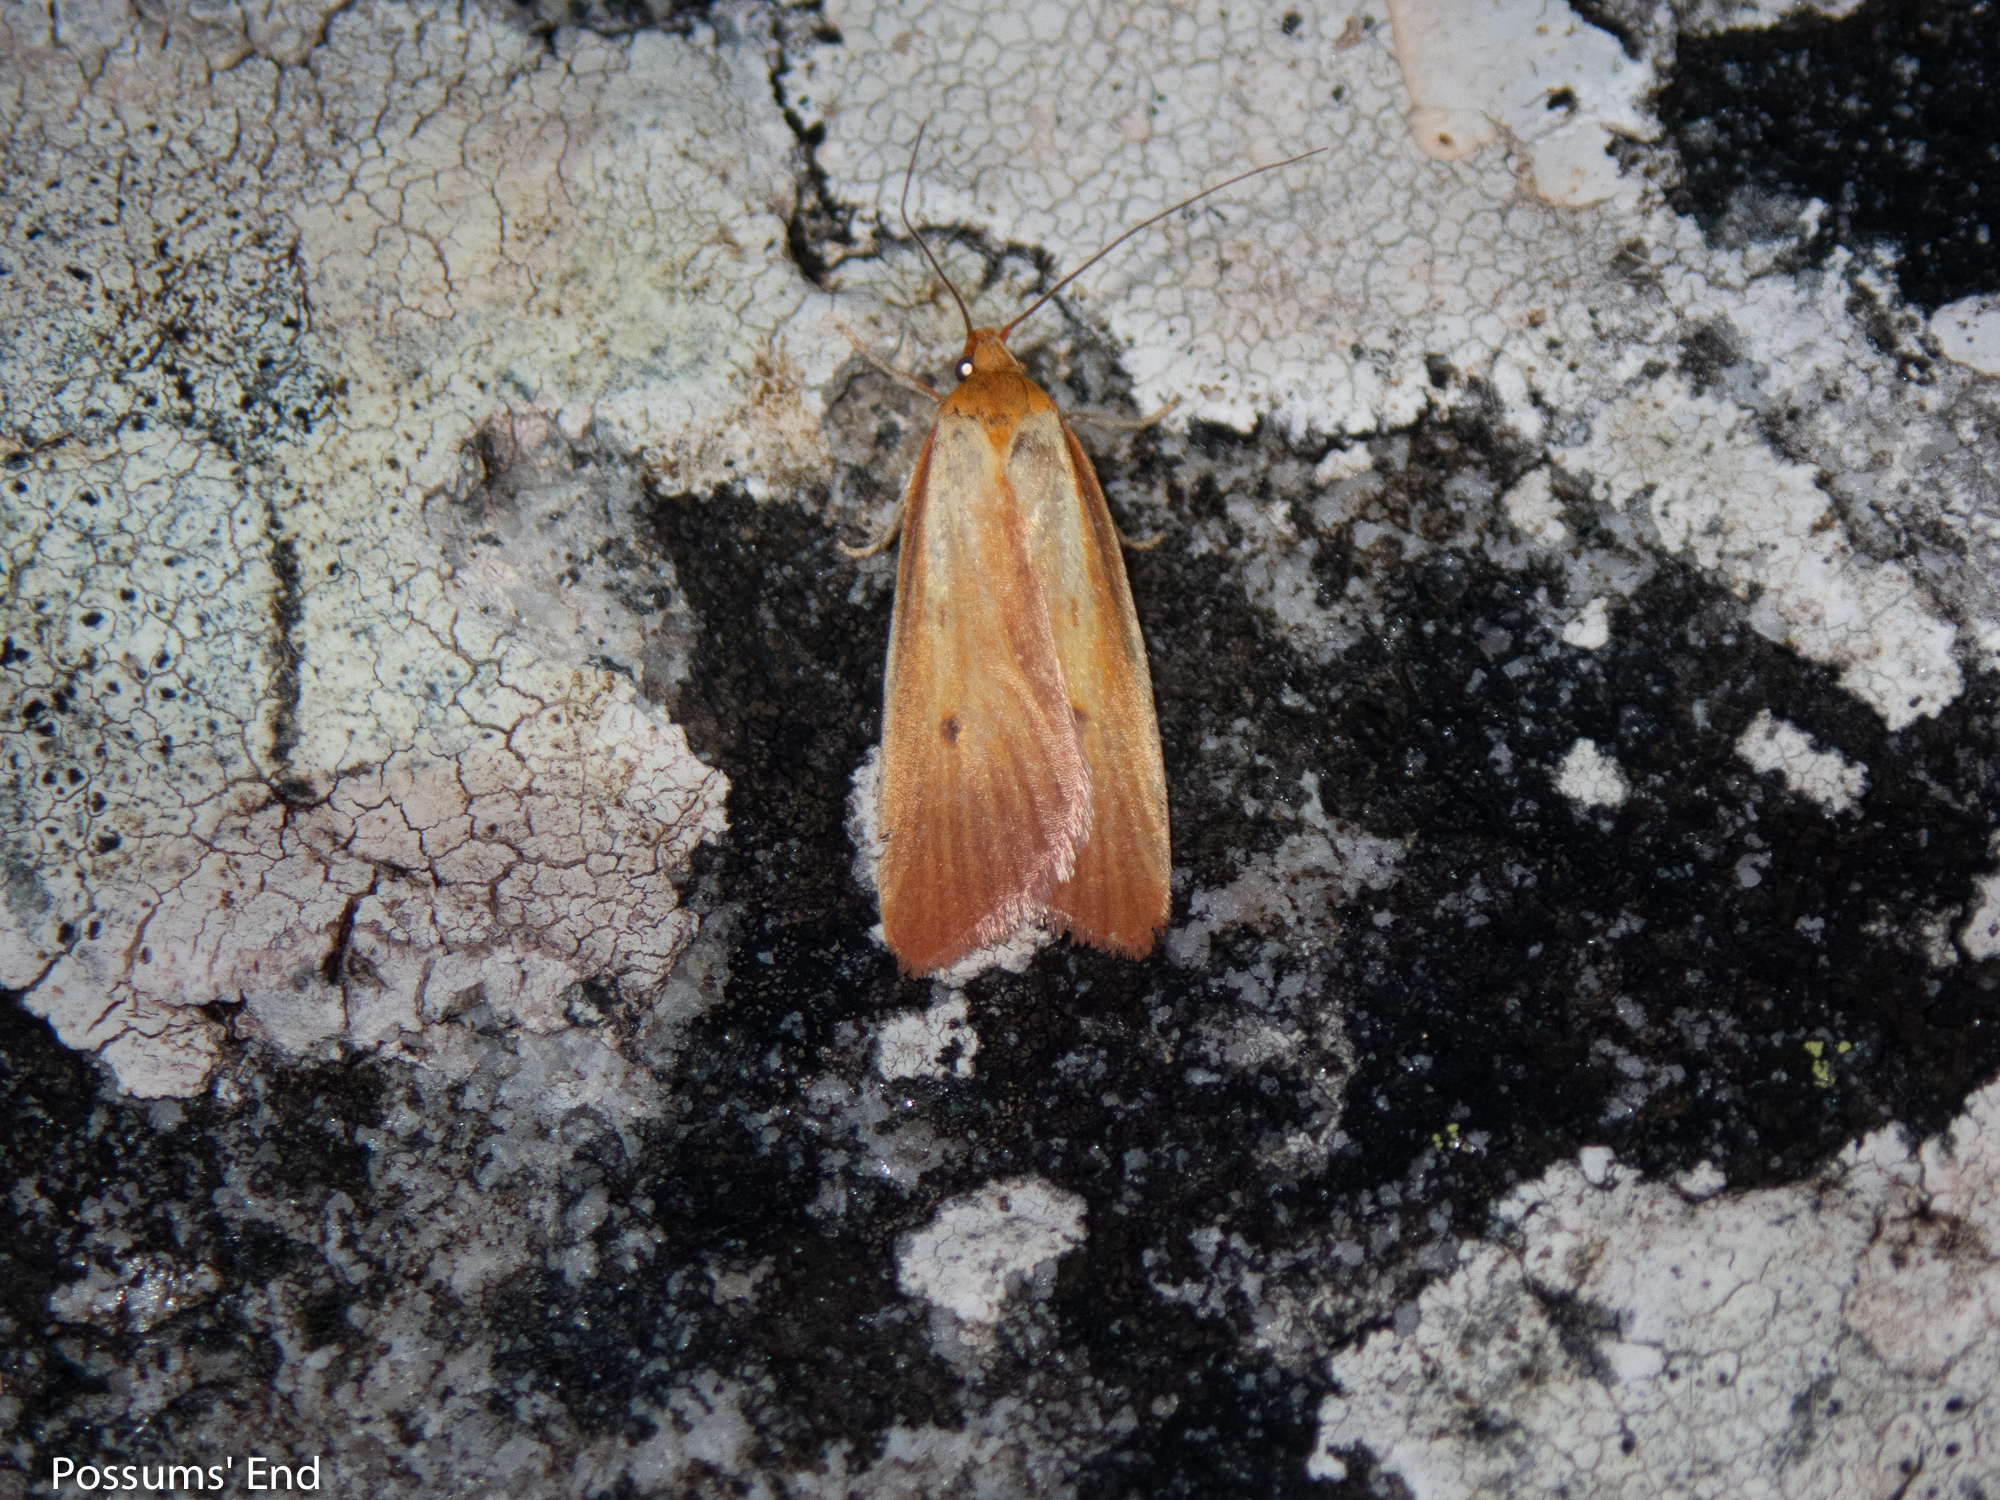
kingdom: Animalia
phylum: Arthropoda
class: Insecta
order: Lepidoptera
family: Oecophoridae
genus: Proteodes
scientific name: Proteodes smithi
